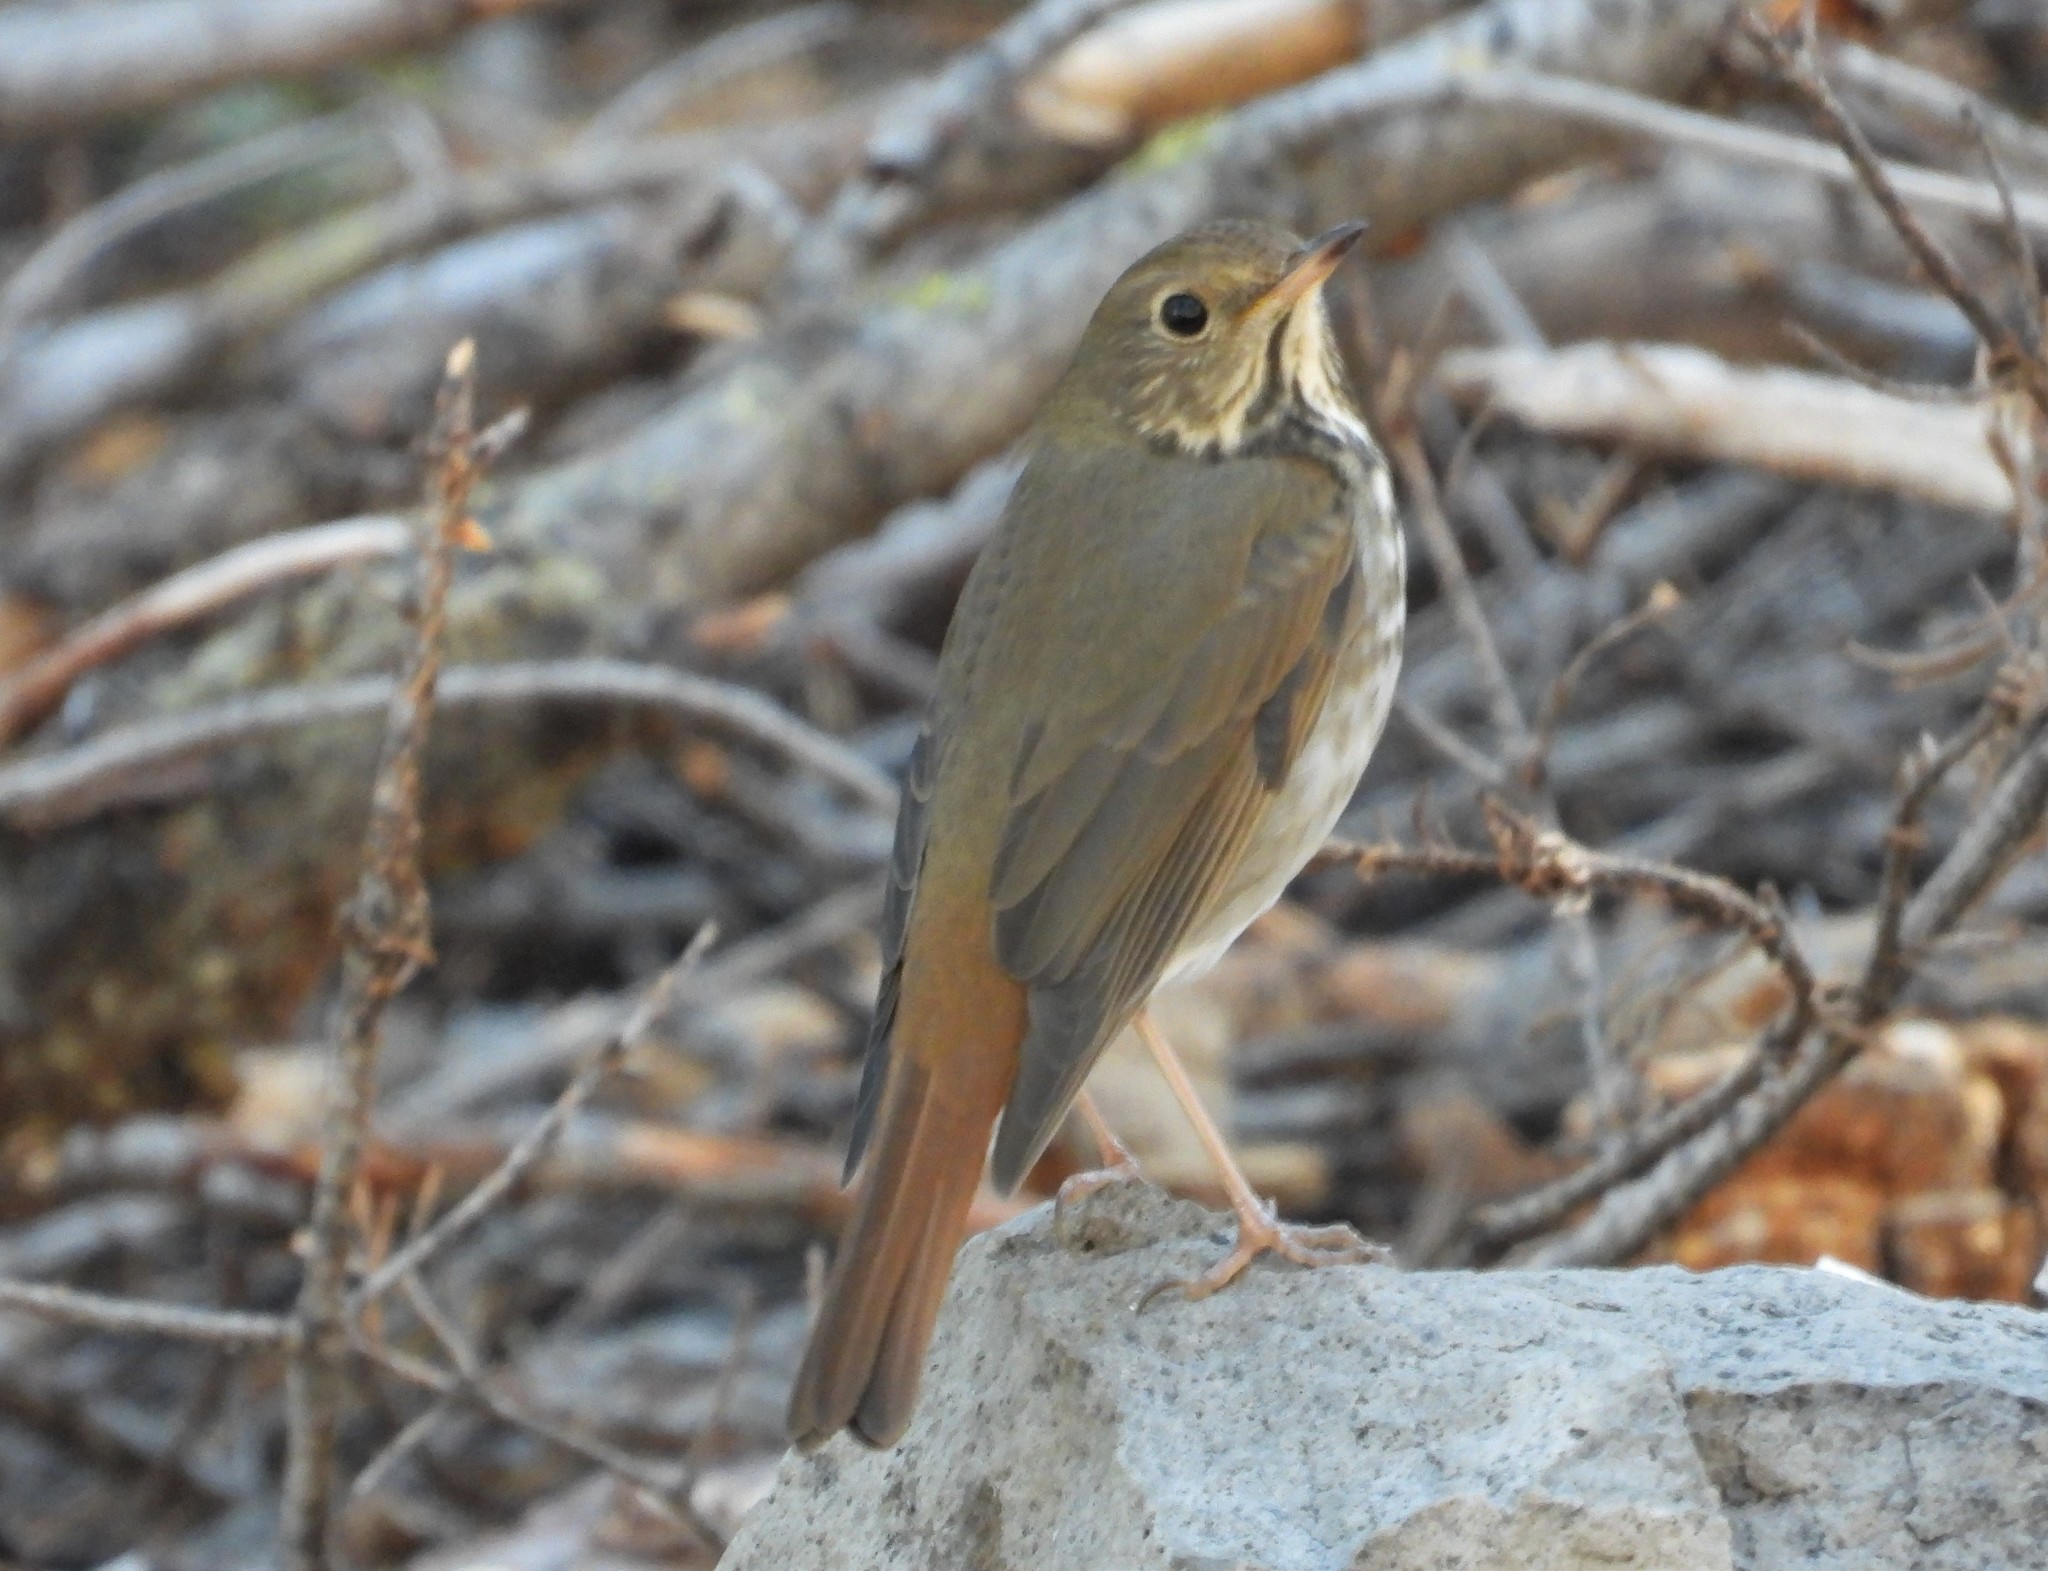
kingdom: Animalia
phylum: Chordata
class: Aves
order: Passeriformes
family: Turdidae
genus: Catharus
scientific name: Catharus guttatus
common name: Hermit thrush
